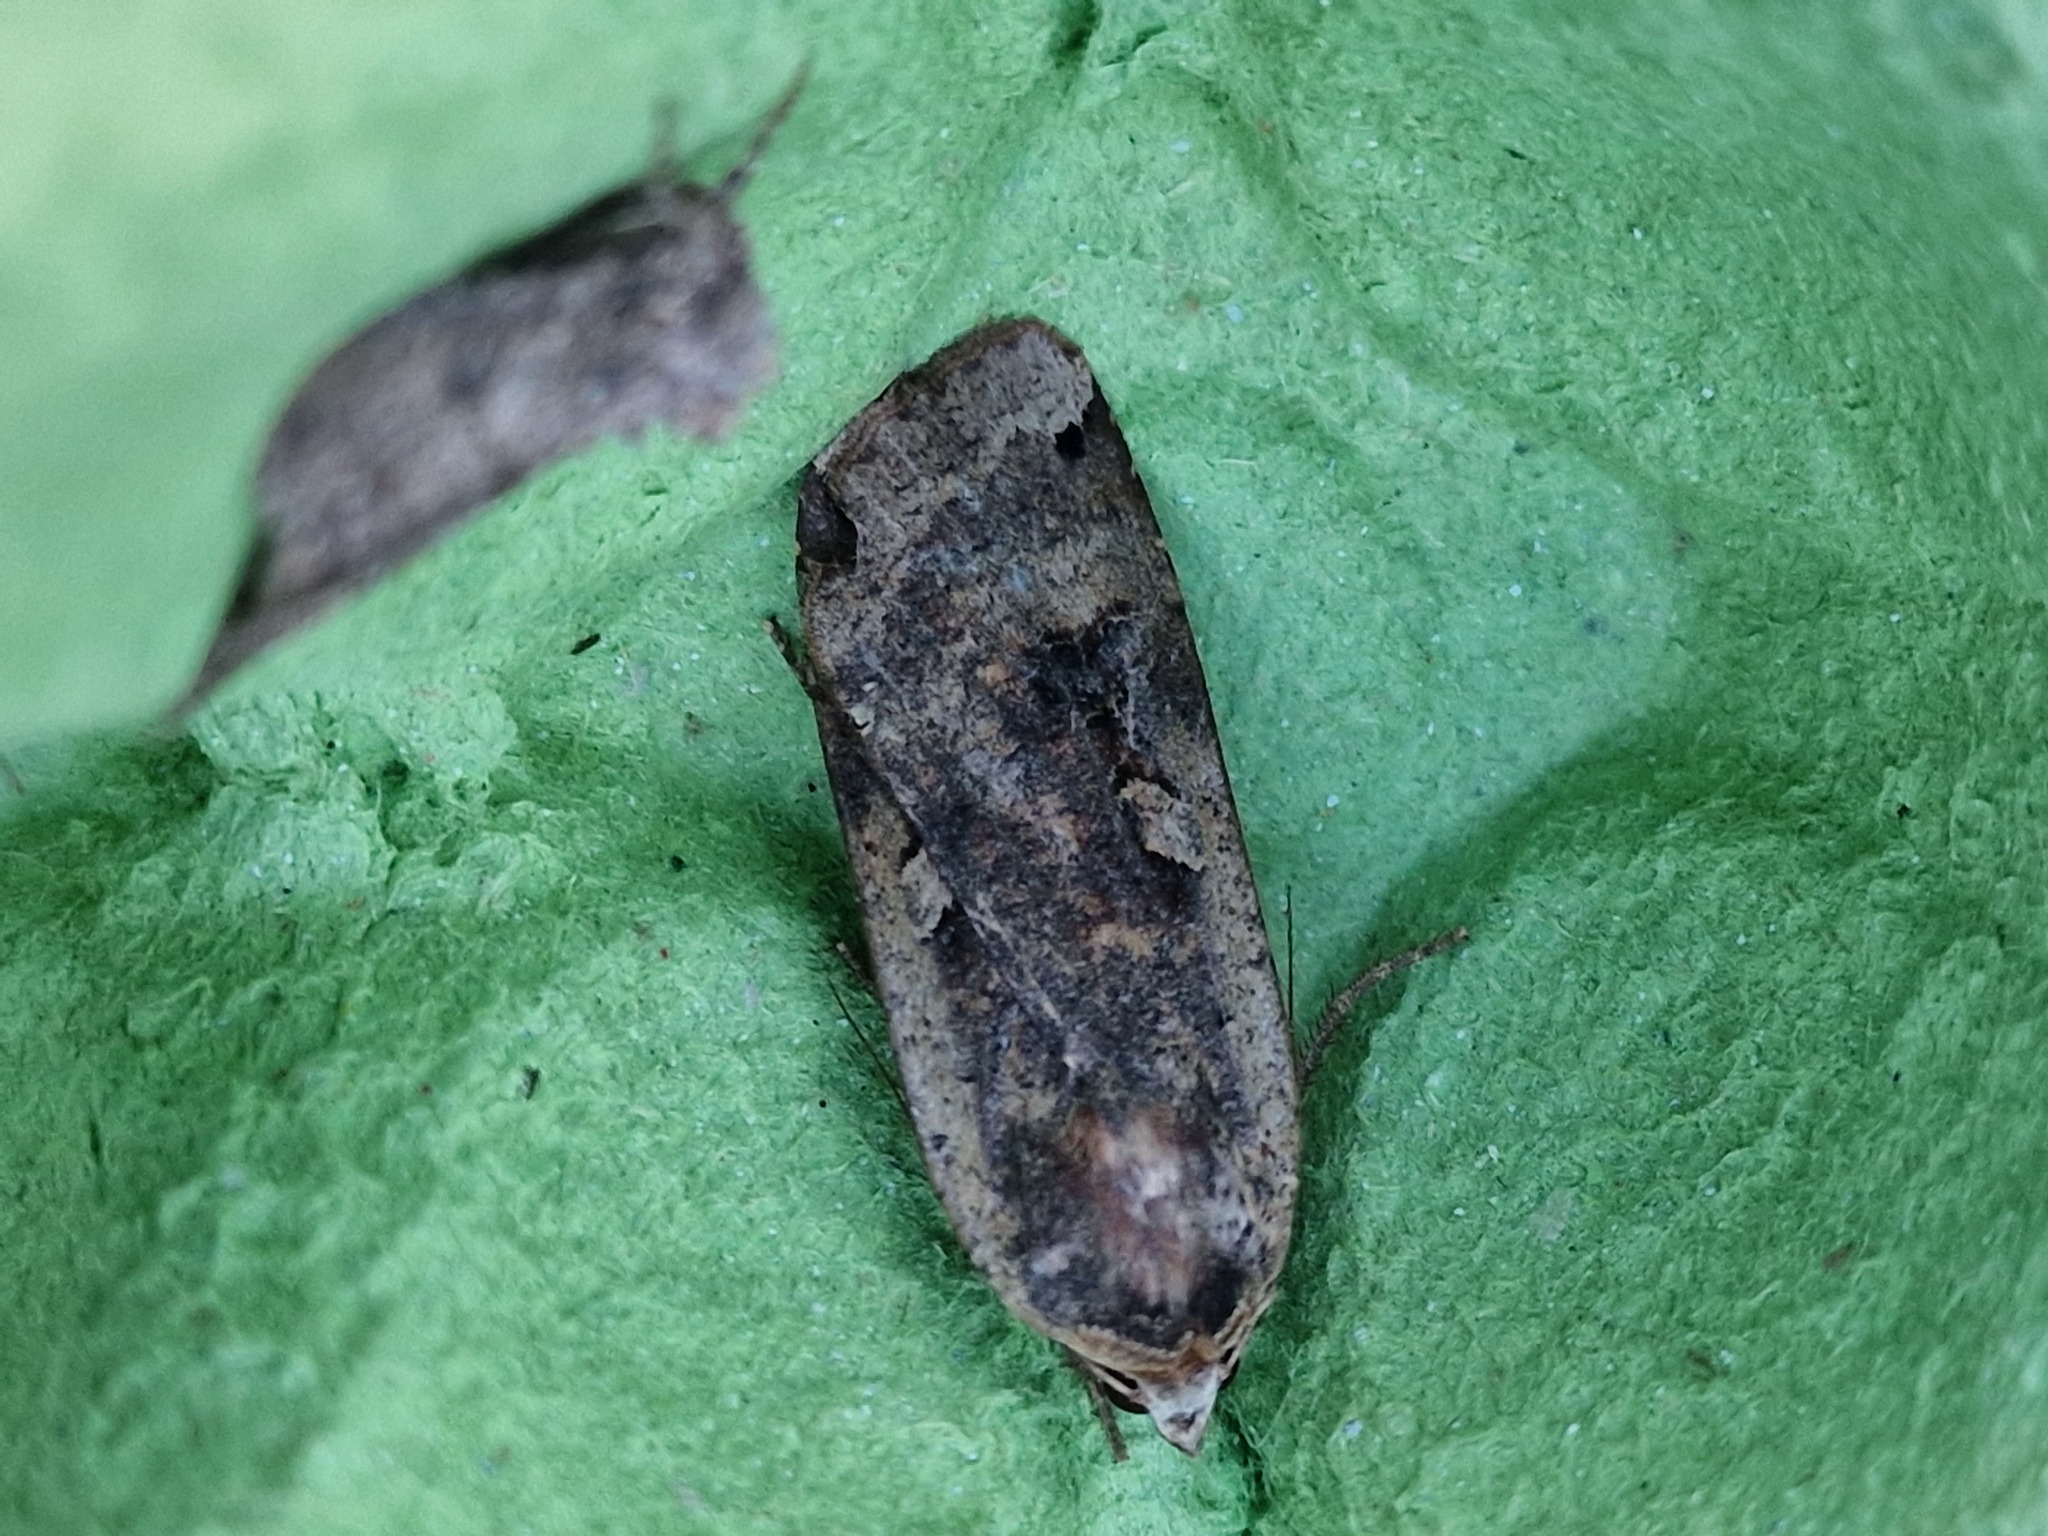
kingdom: Animalia
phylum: Arthropoda
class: Insecta
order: Lepidoptera
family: Noctuidae
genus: Noctua
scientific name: Noctua pronuba
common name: Large yellow underwing
